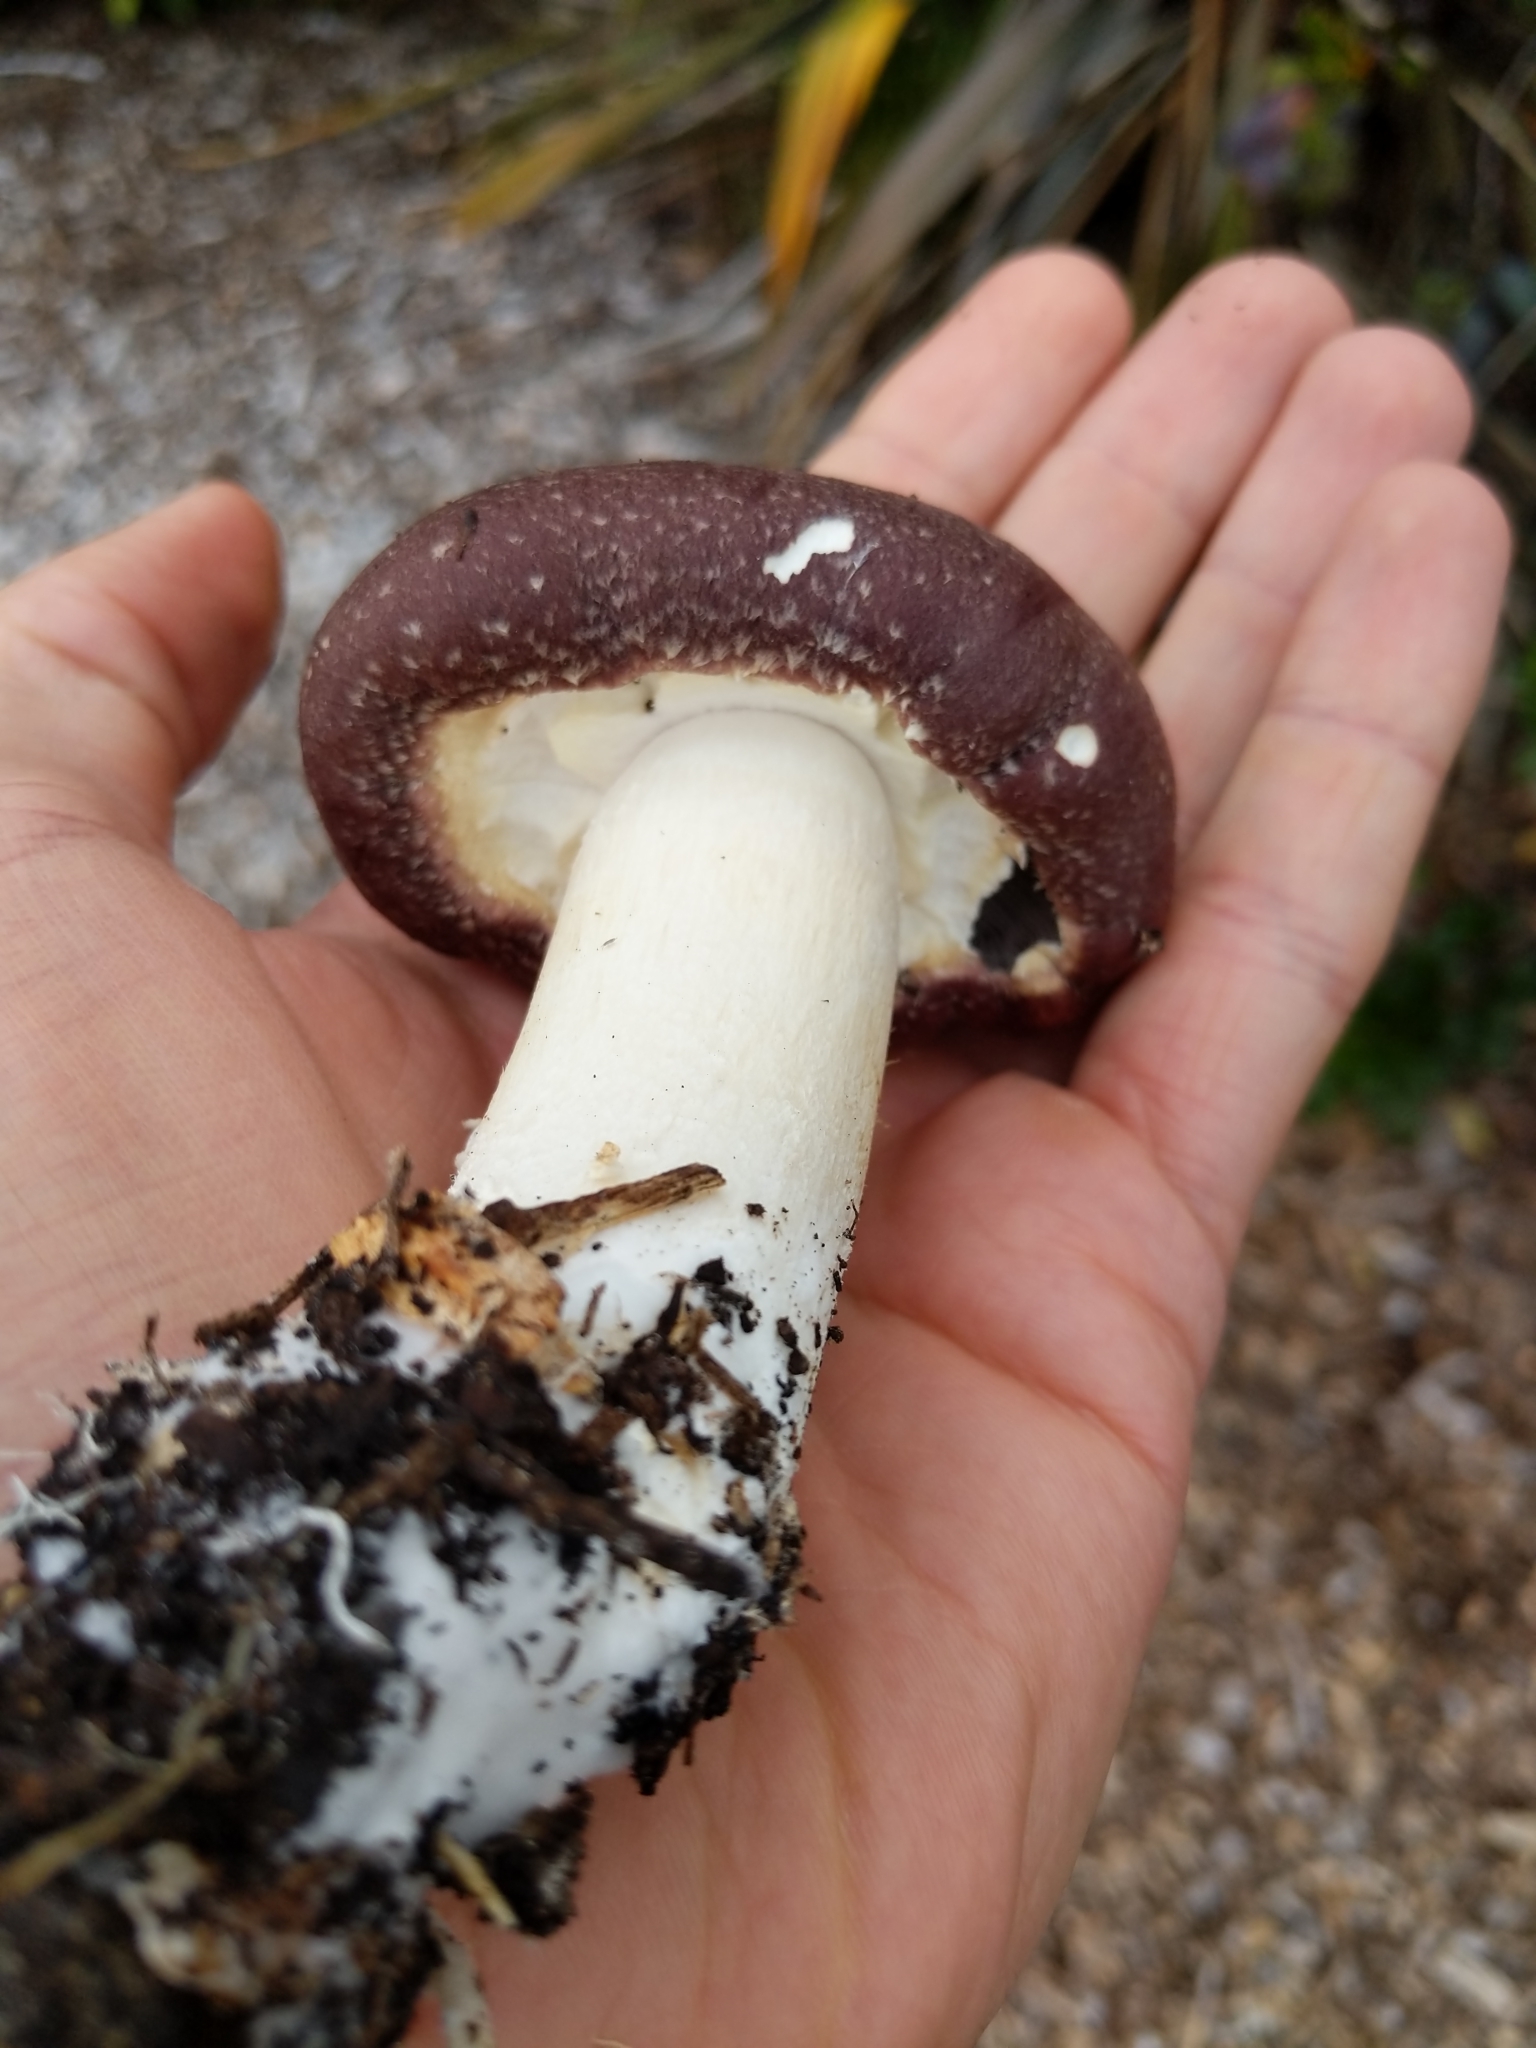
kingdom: Fungi
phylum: Basidiomycota
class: Agaricomycetes
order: Agaricales
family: Strophariaceae
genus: Stropharia
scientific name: Stropharia rugosoannulata
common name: Wine roundhead
